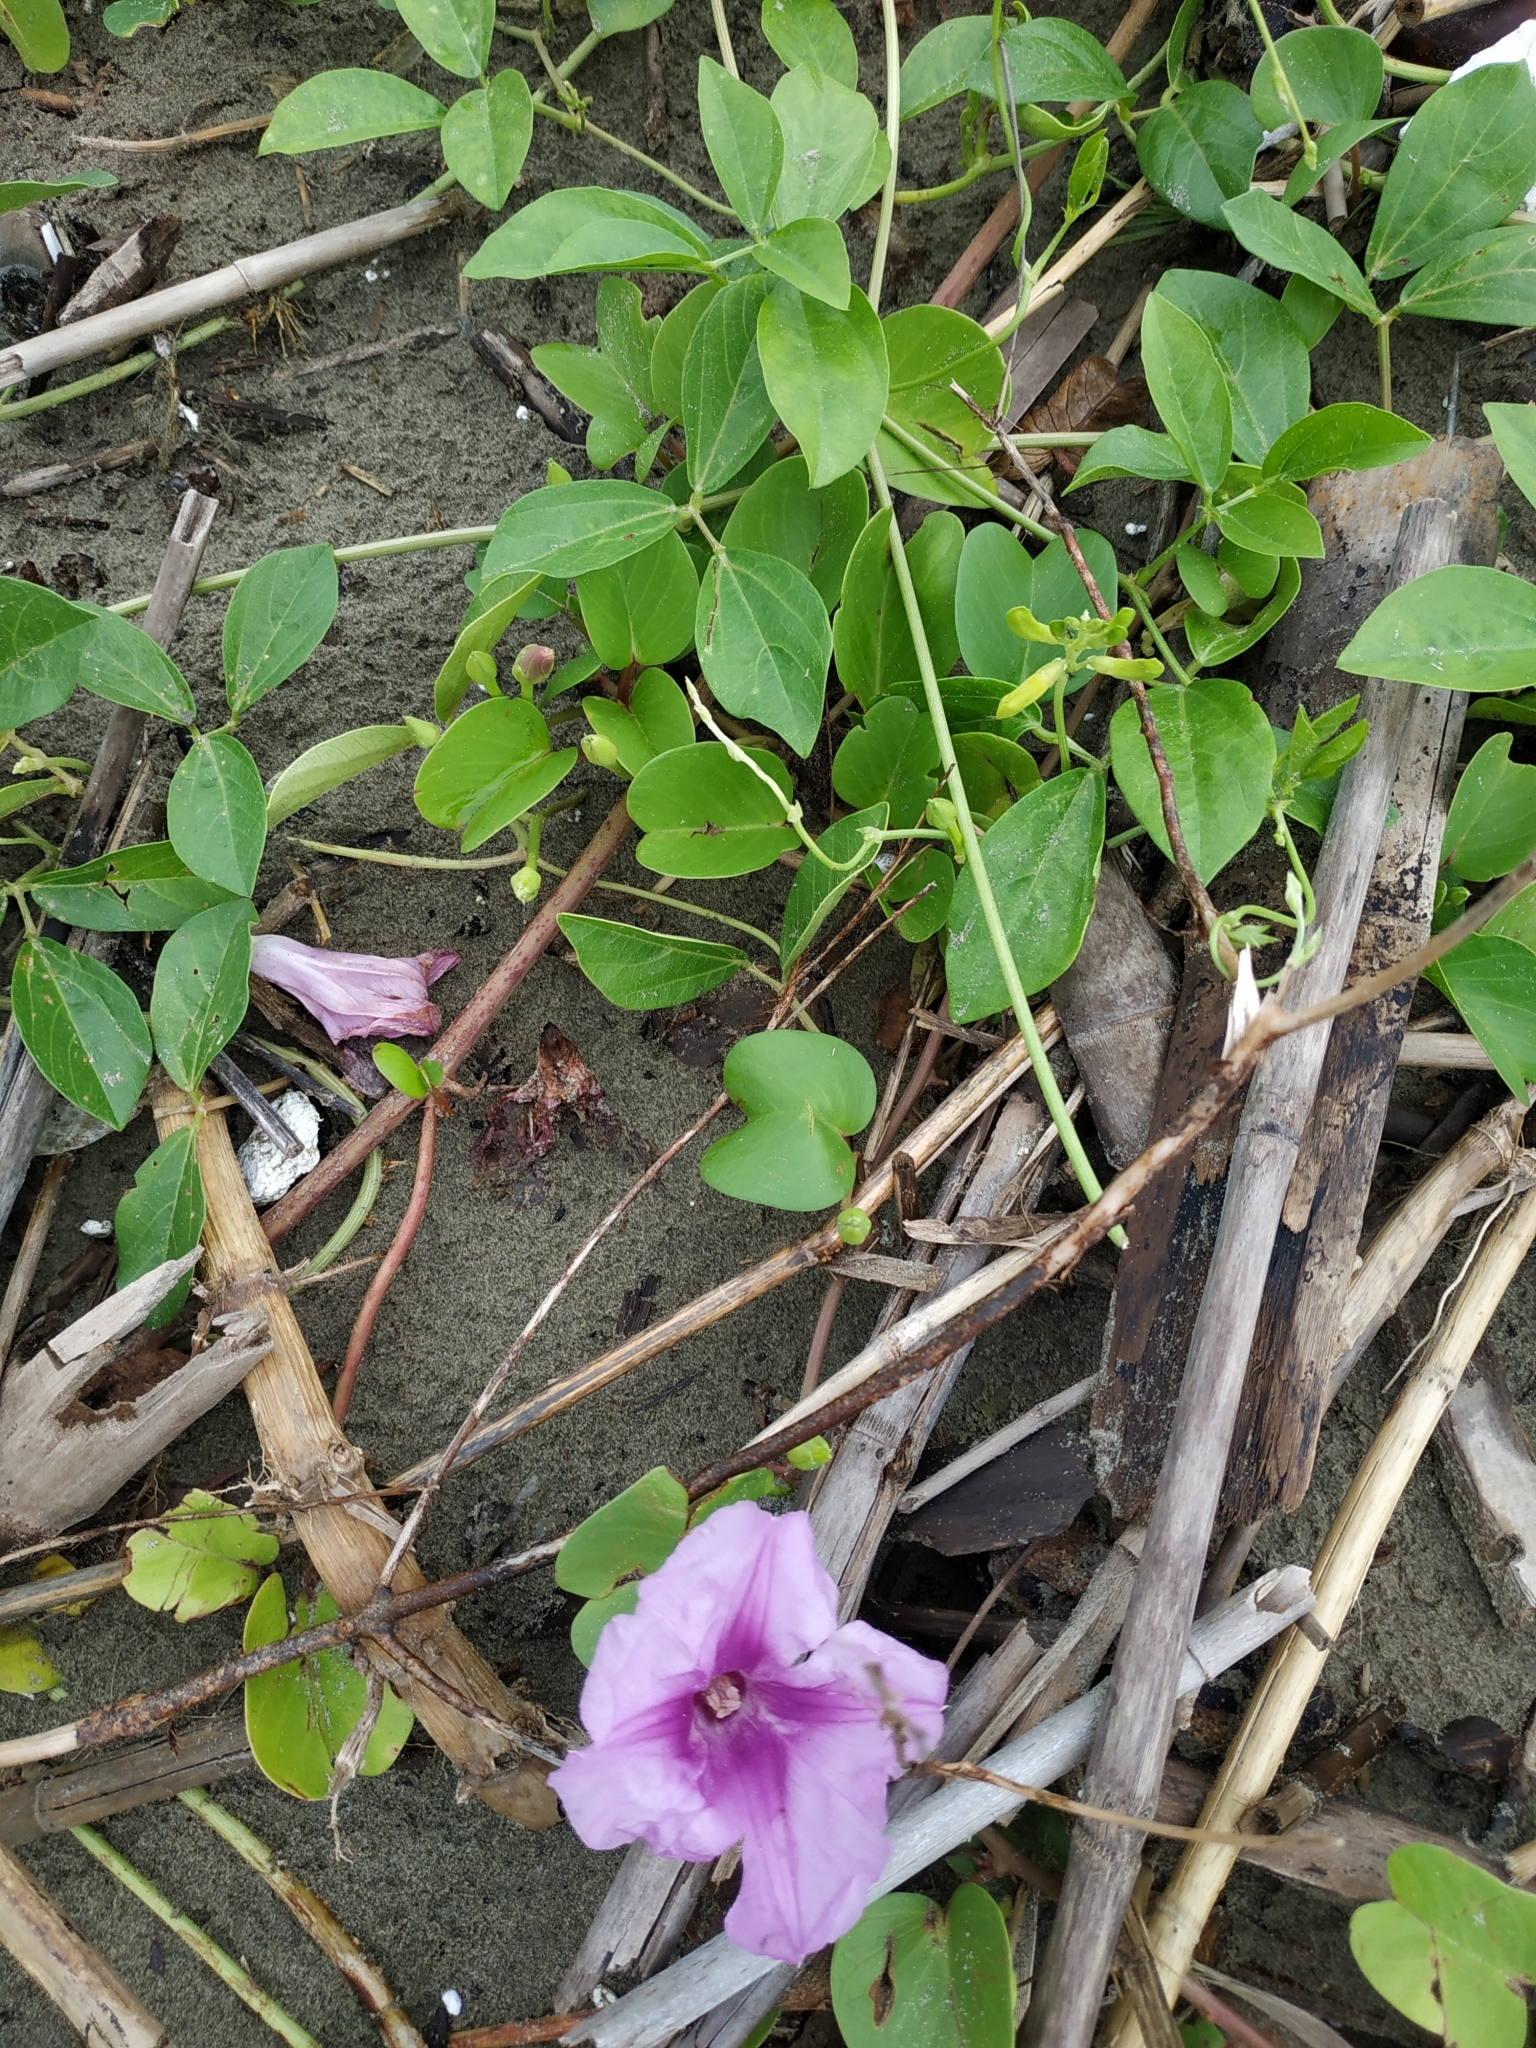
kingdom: Plantae
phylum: Tracheophyta
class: Magnoliopsida
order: Solanales
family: Convolvulaceae
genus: Ipomoea
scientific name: Ipomoea pes-caprae
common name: Beach morning glory
